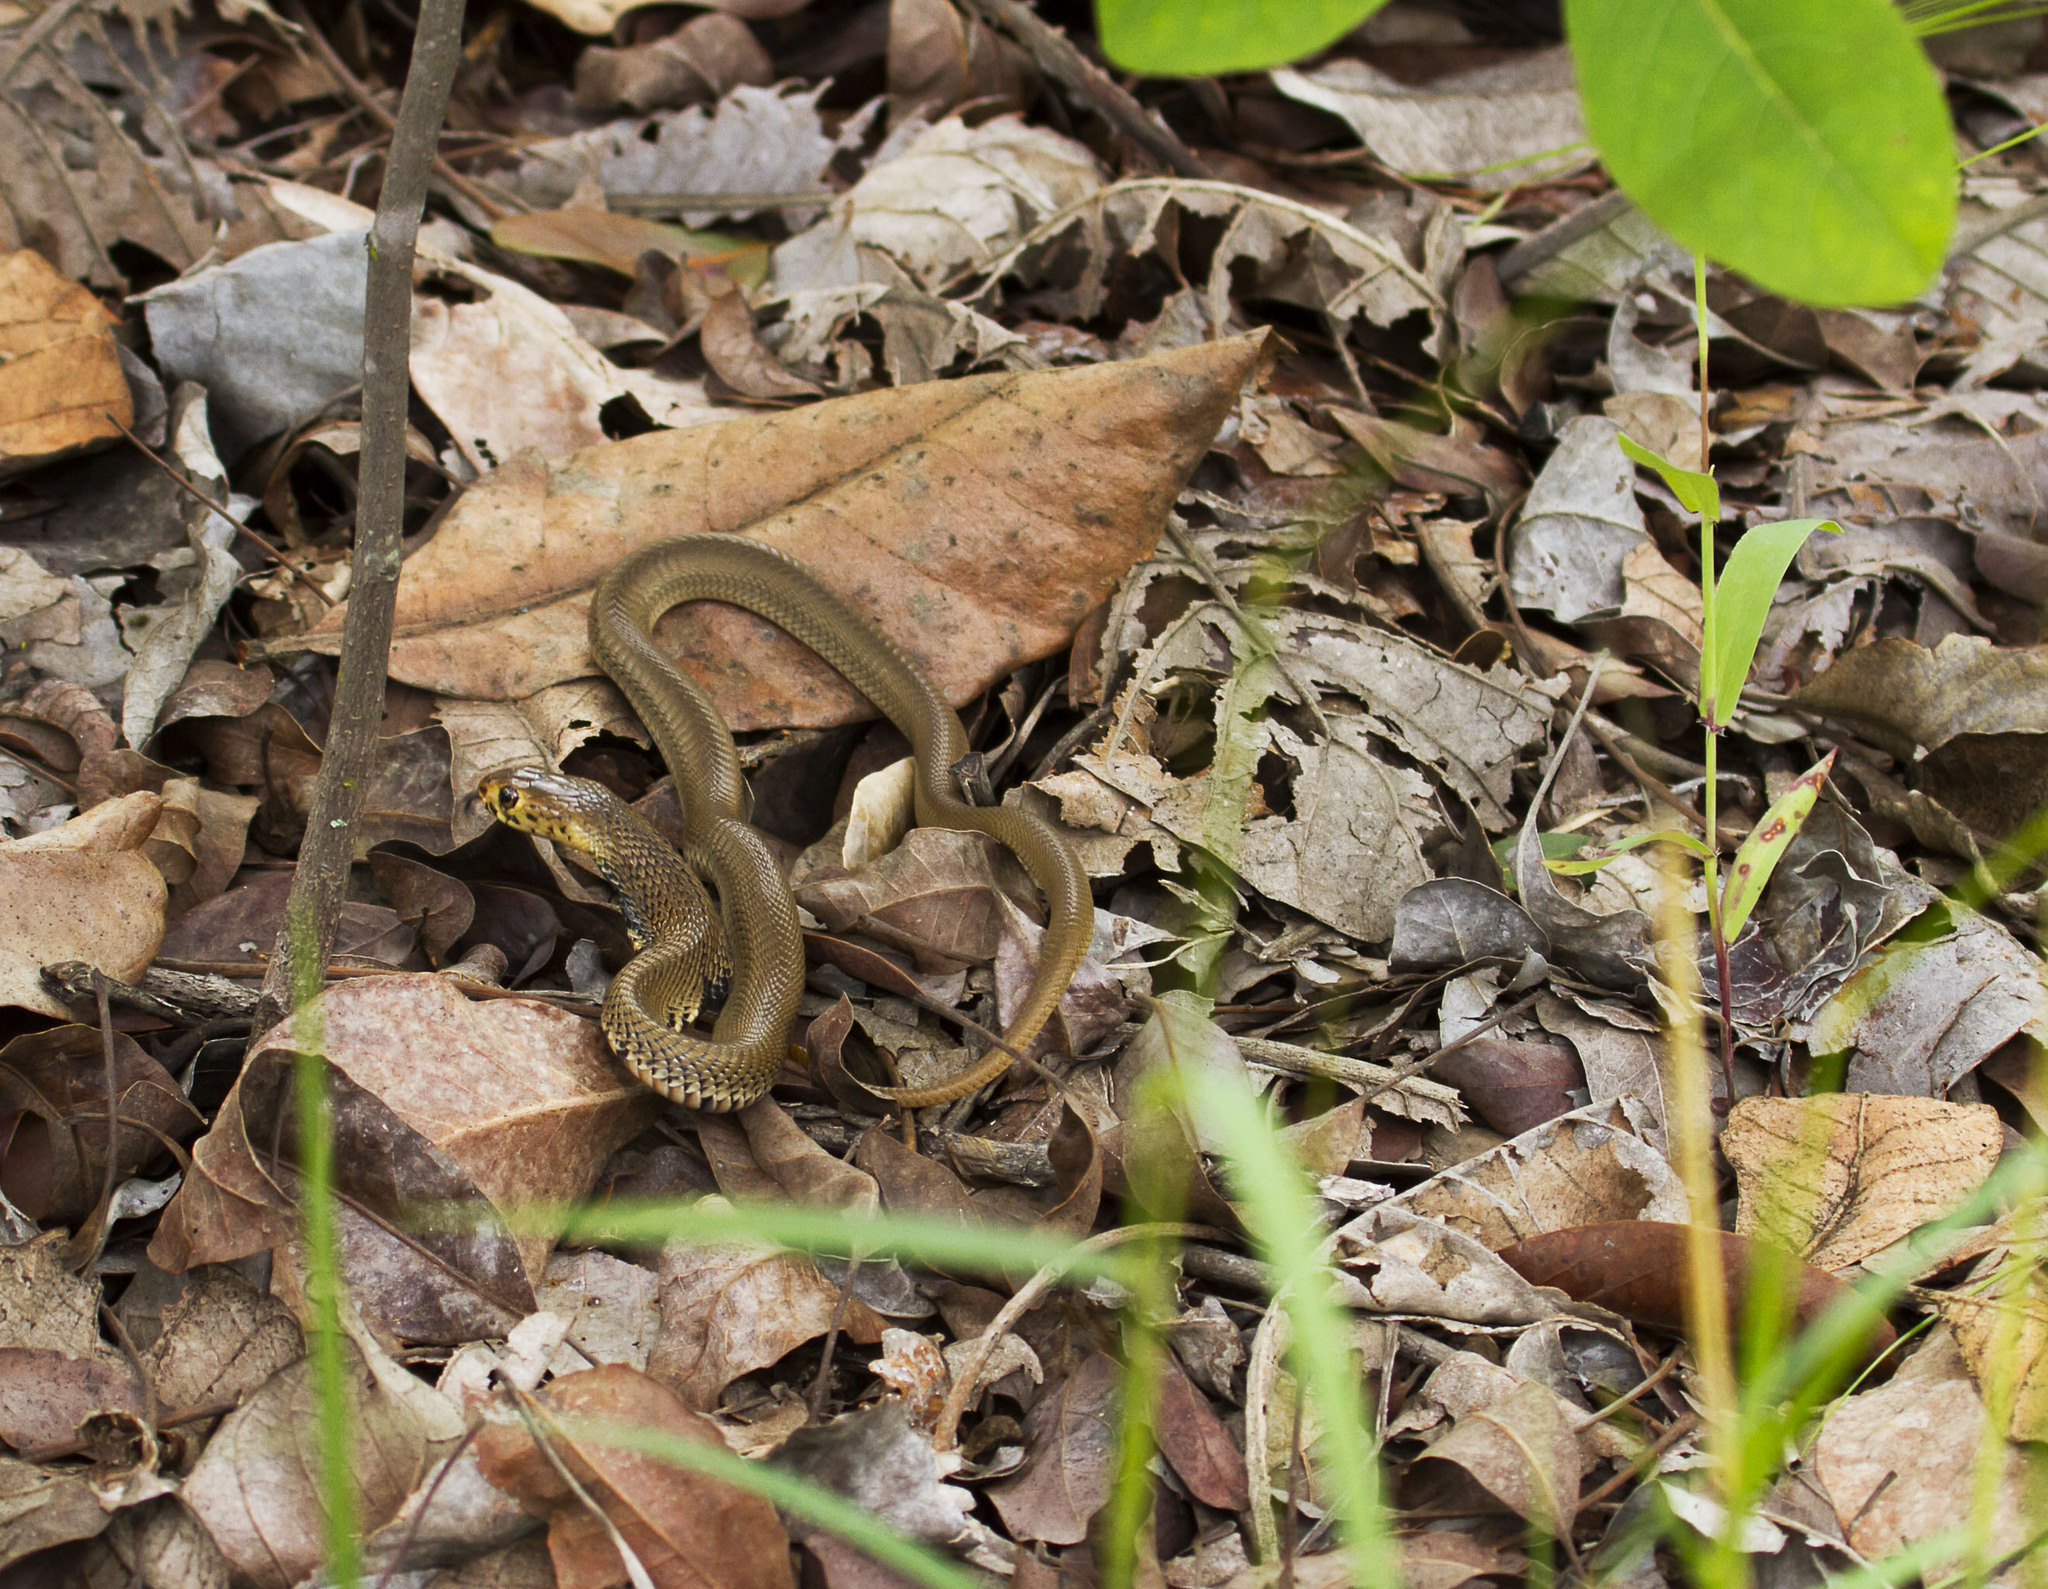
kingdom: Animalia
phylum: Chordata
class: Squamata
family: Elapidae
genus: Naja
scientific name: Naja mossambica
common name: Mozambique spitting cobra
